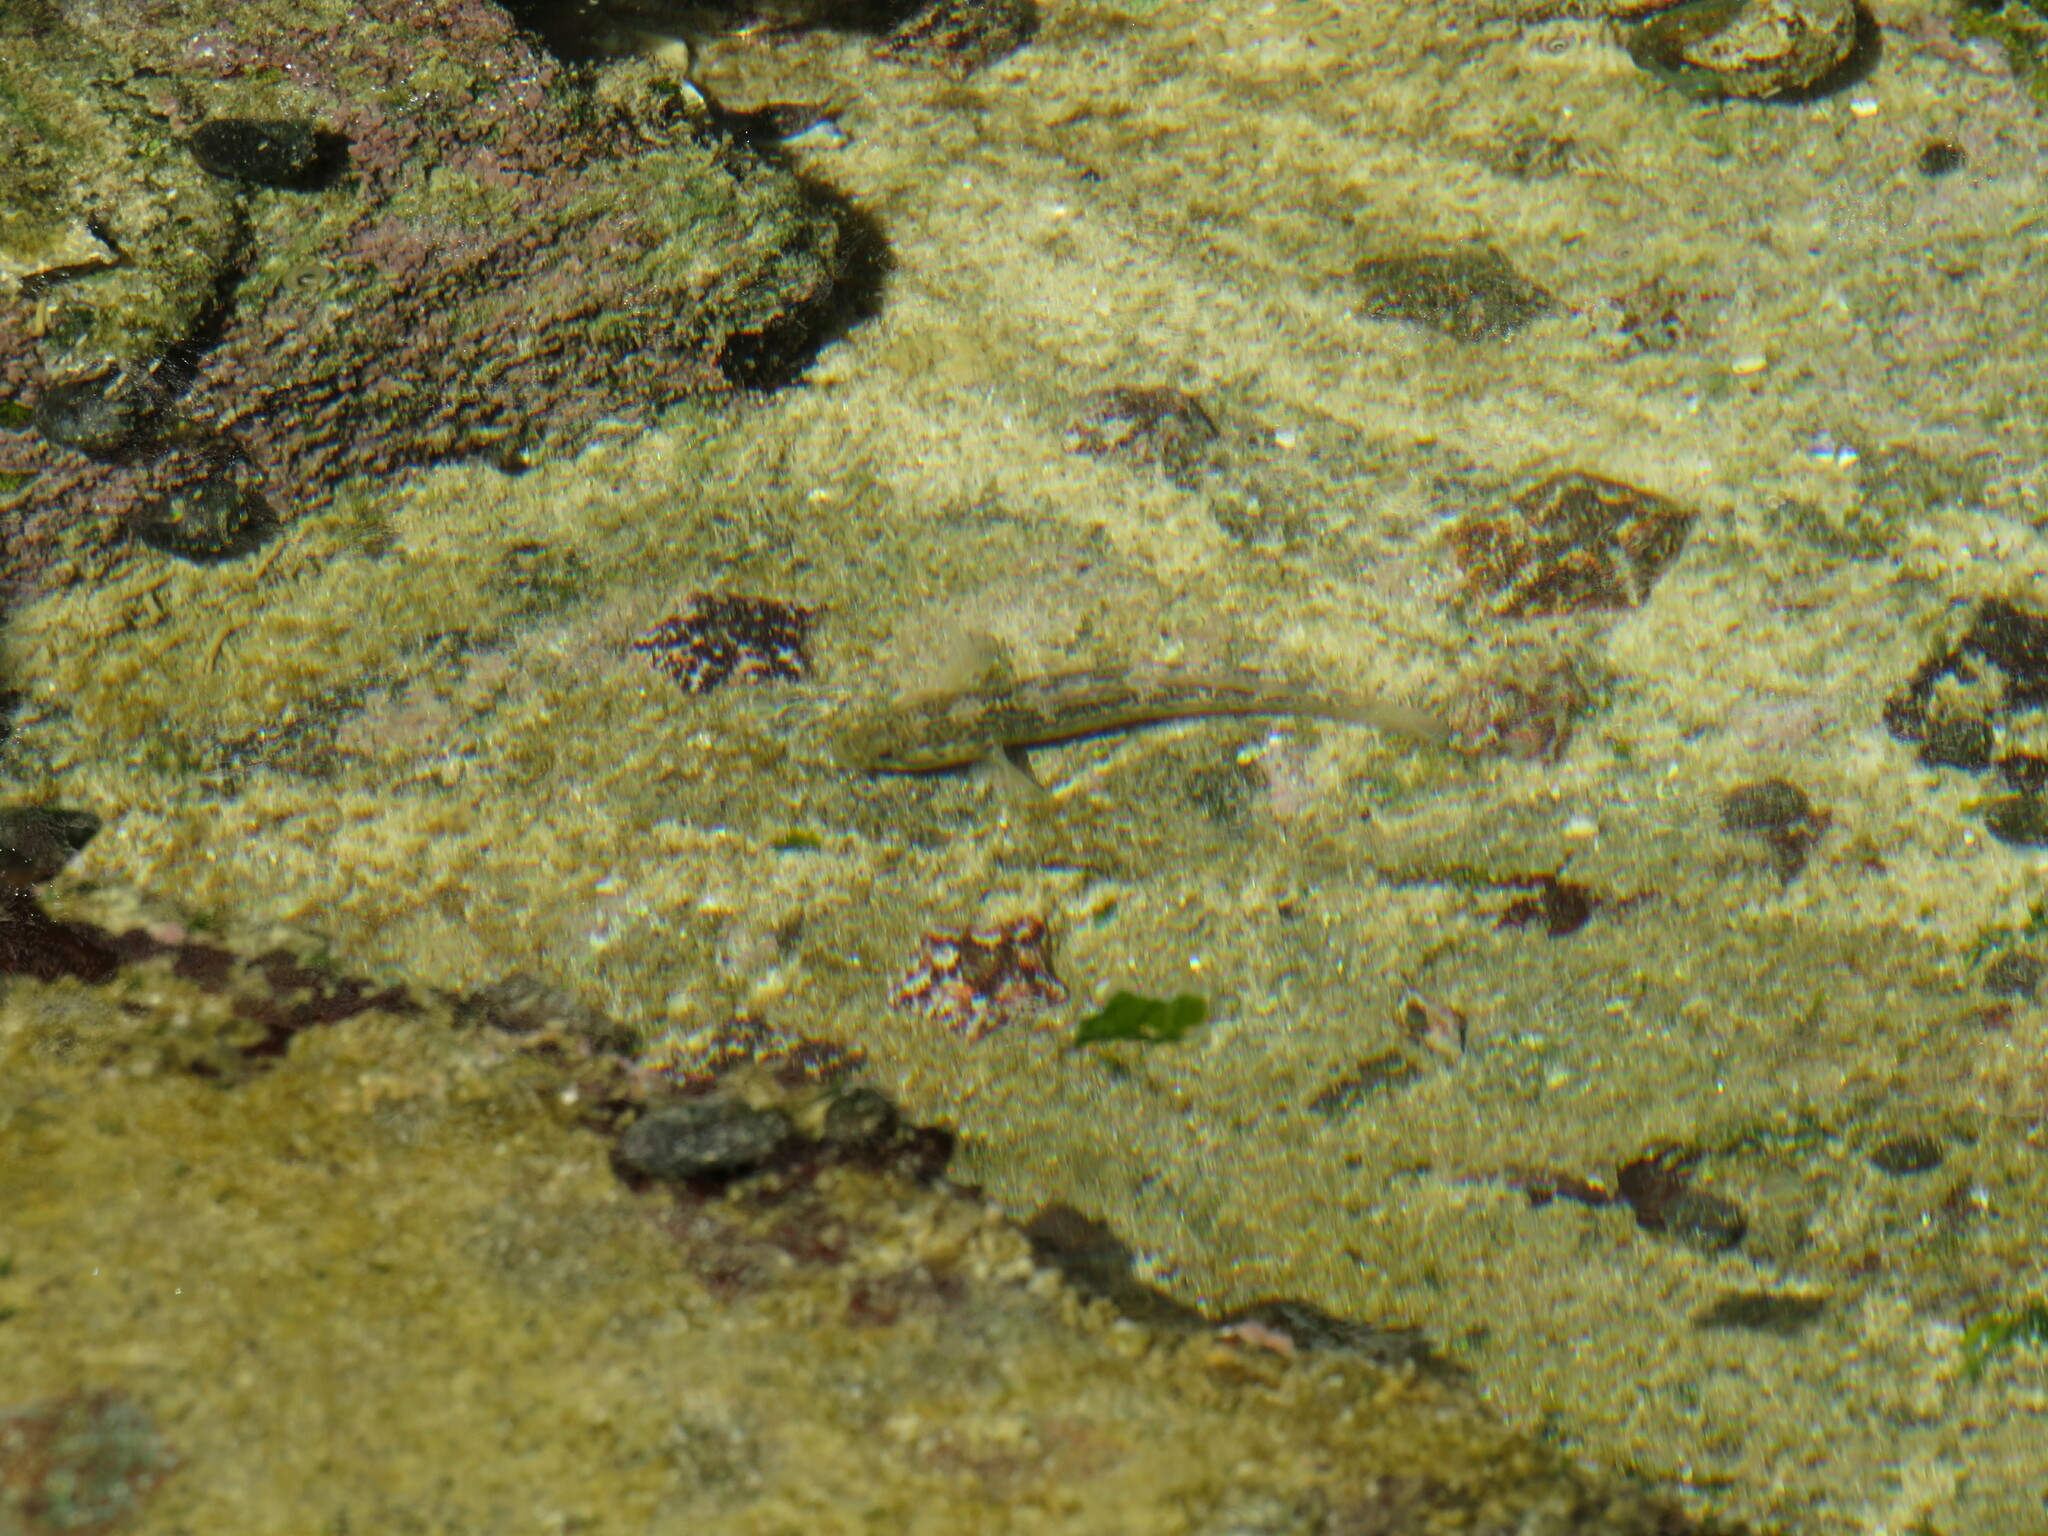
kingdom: Animalia
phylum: Chordata
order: Perciformes
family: Gobiidae
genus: Caffrogobius
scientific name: Caffrogobius caffer
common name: Banded goby
